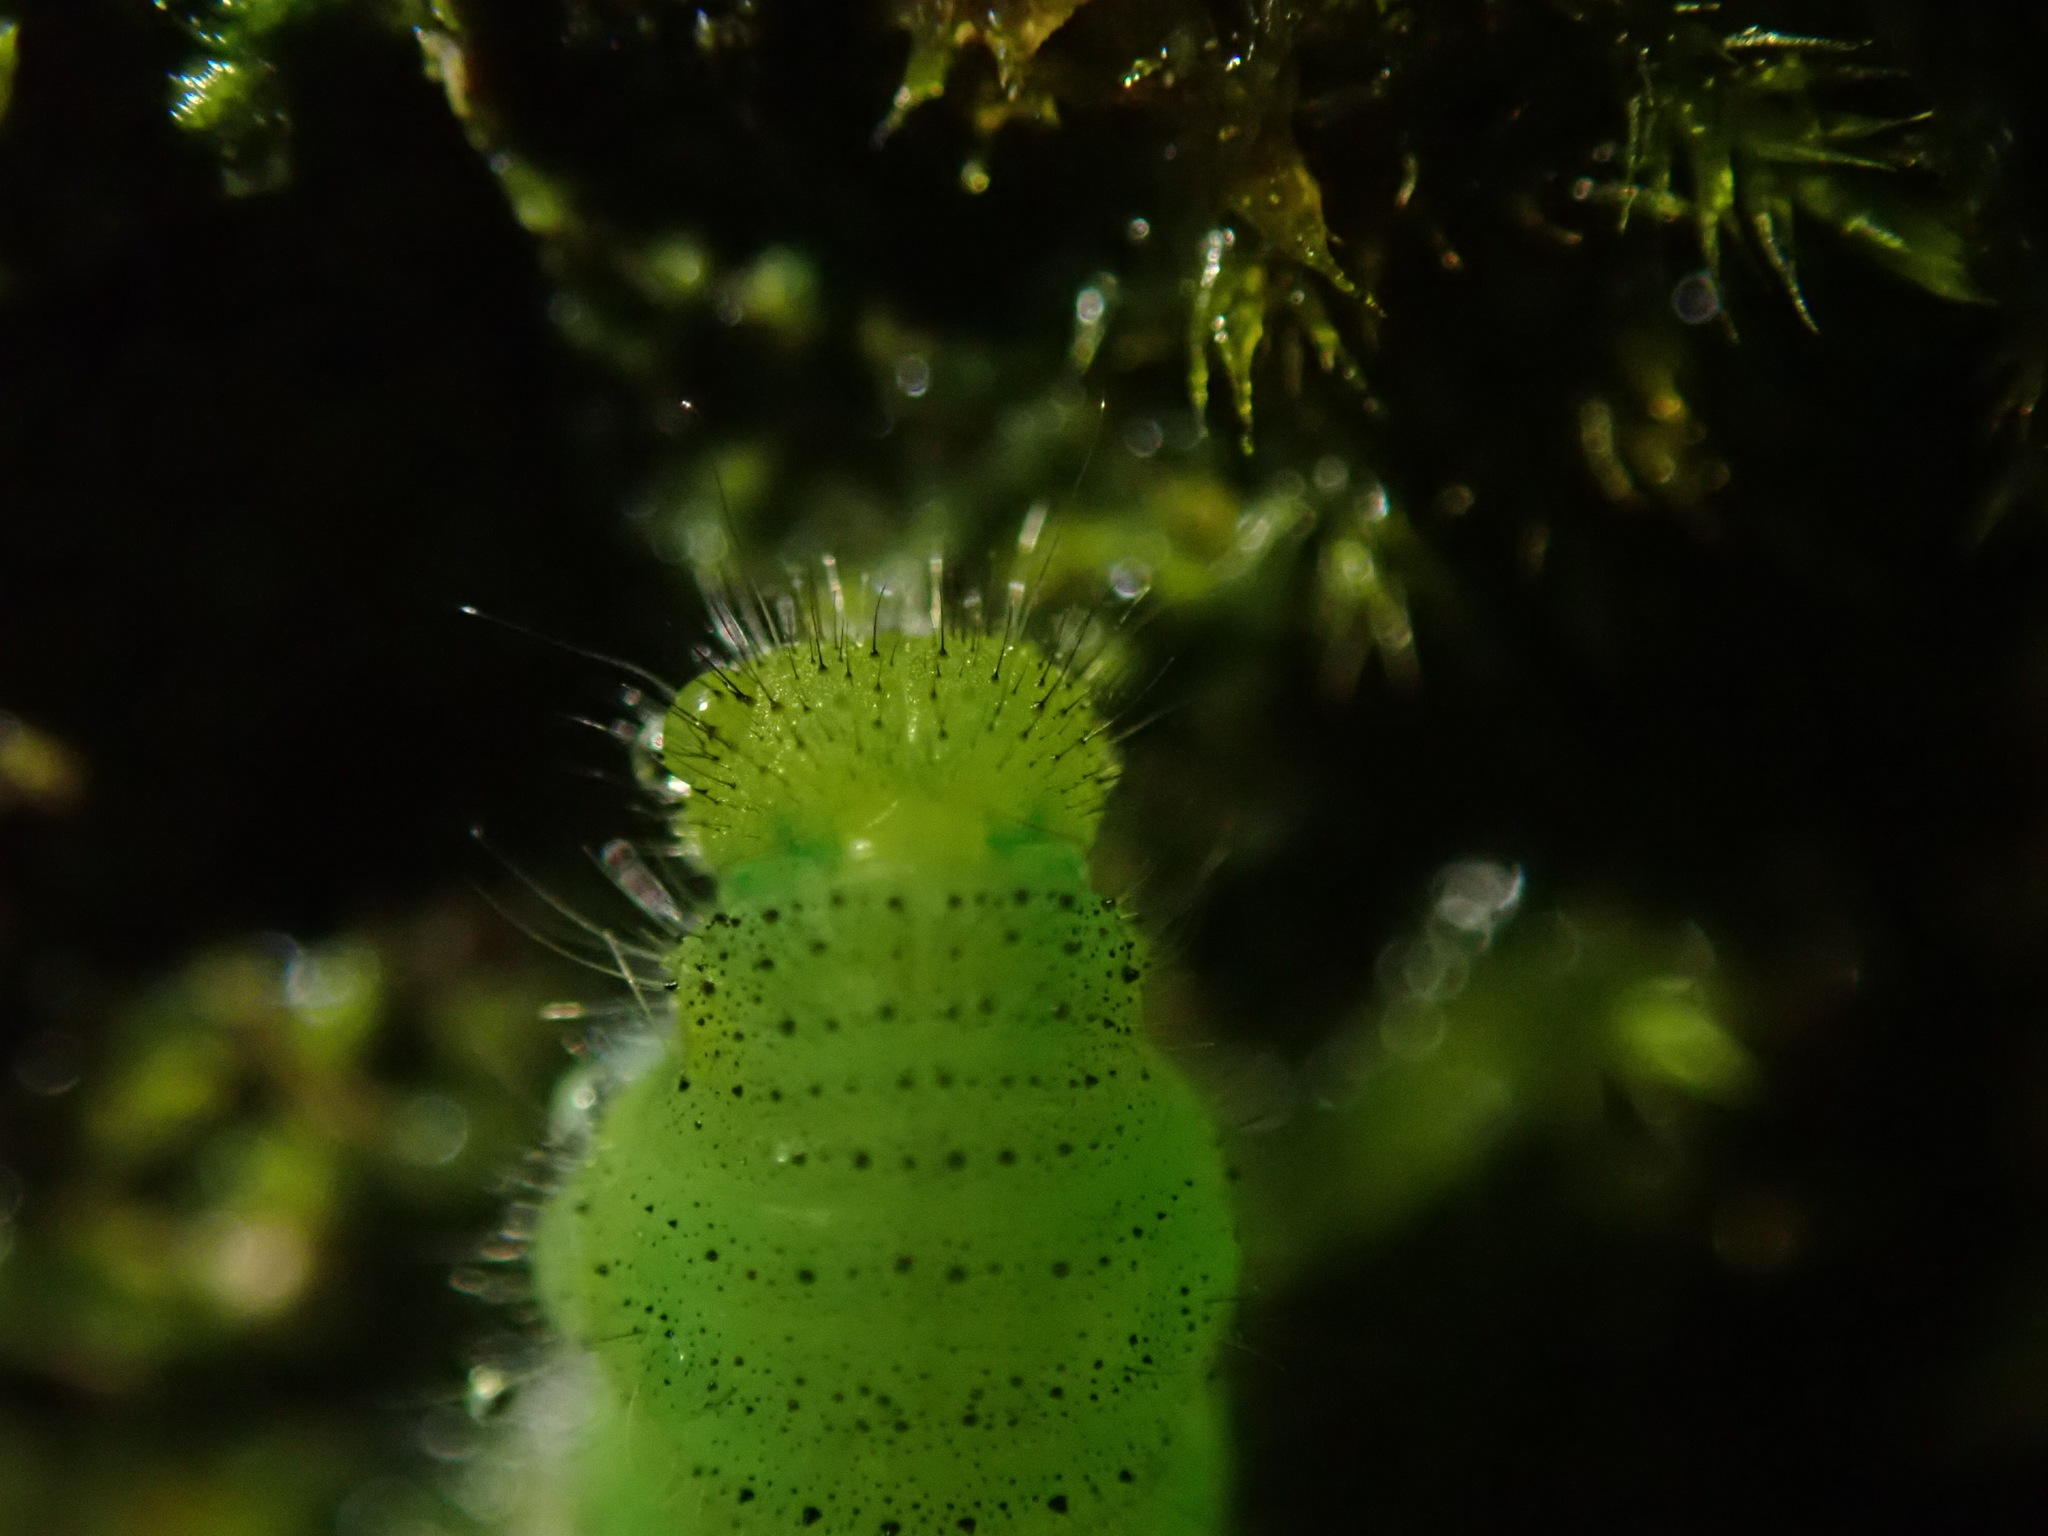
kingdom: Animalia
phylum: Arthropoda
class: Insecta
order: Lepidoptera
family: Pieridae
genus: Pieris
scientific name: Pieris napi
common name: Green-veined white
